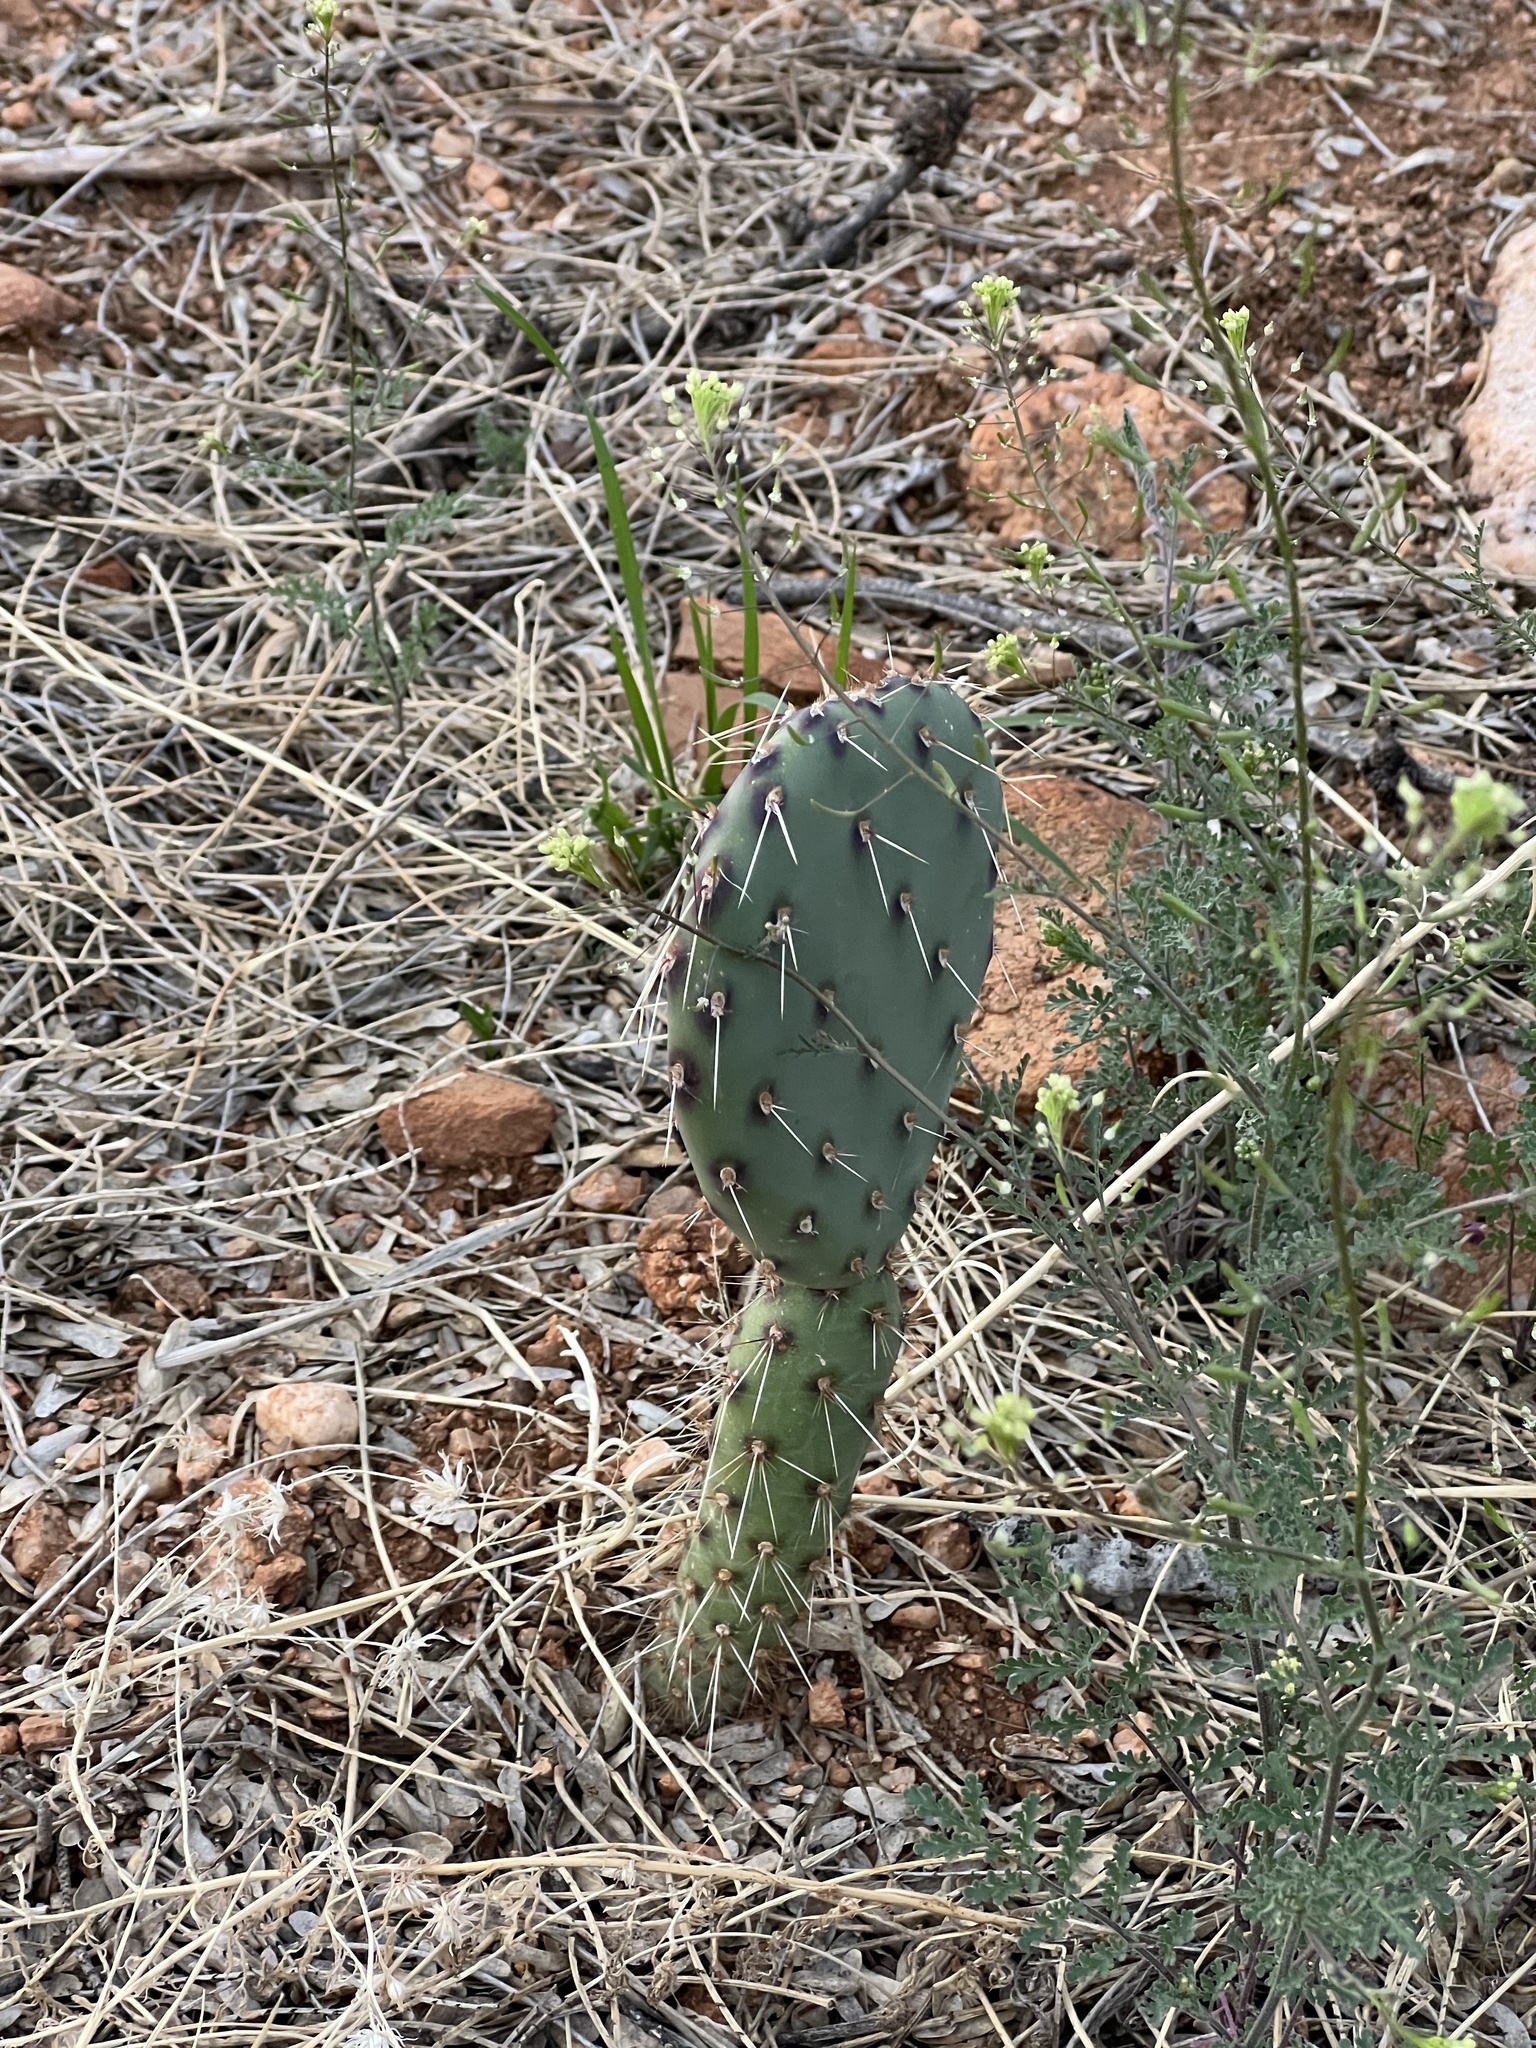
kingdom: Plantae
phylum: Tracheophyta
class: Magnoliopsida
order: Caryophyllales
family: Cactaceae
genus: Opuntia
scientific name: Opuntia engelmannii
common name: Cactus-apple
